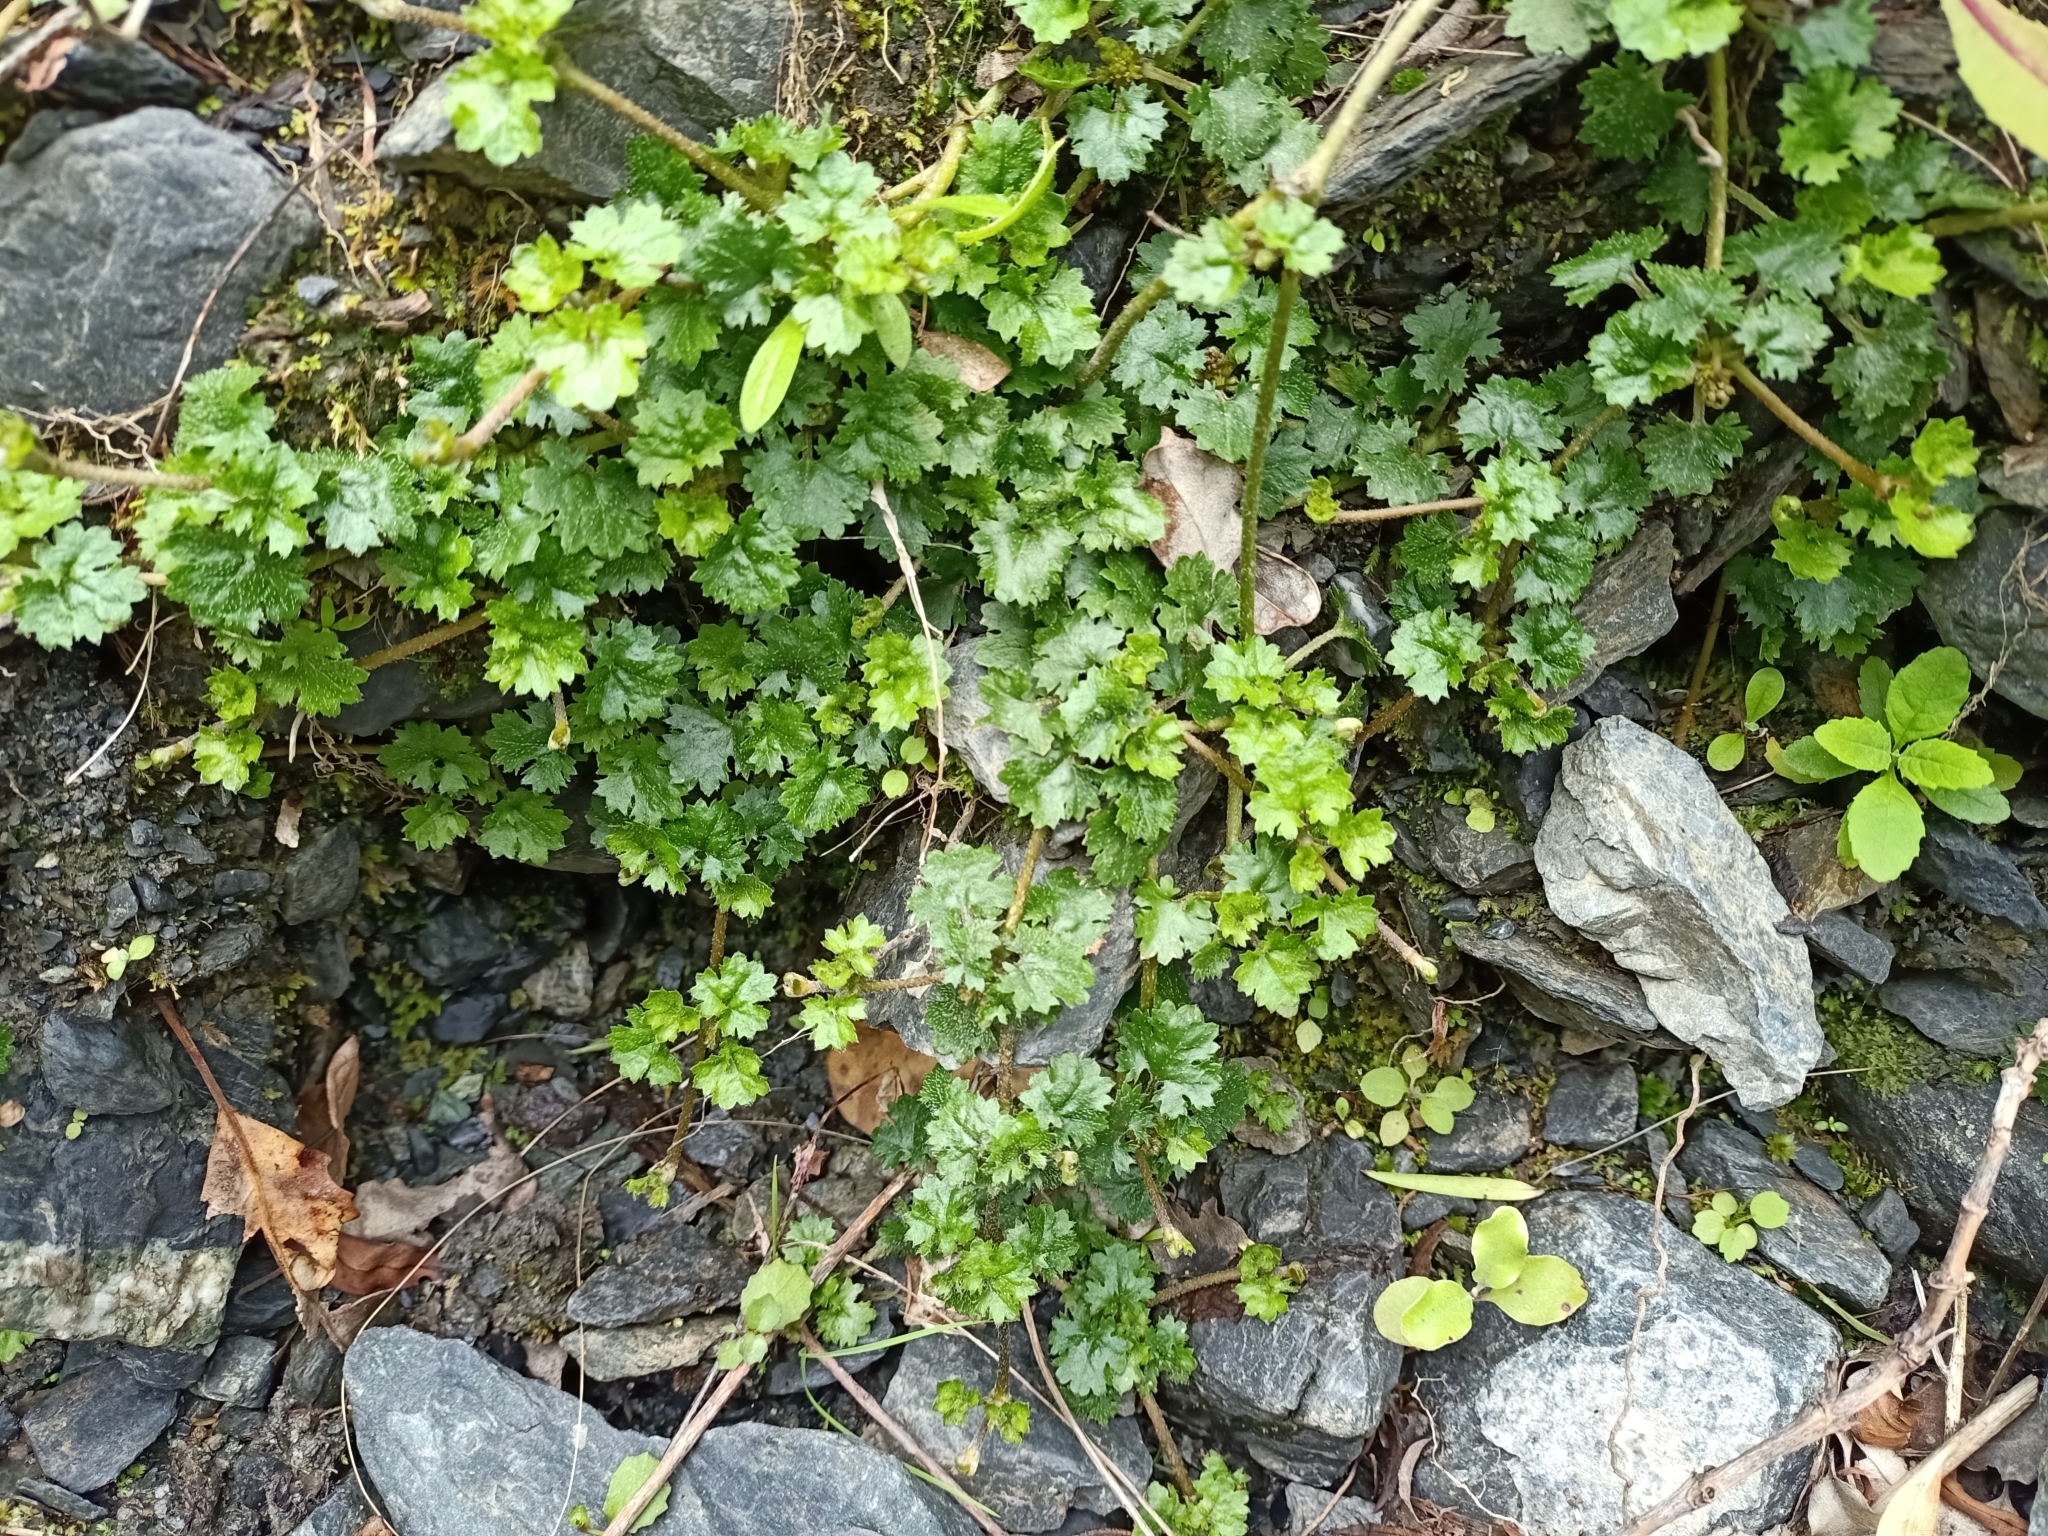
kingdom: Plantae
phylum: Tracheophyta
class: Magnoliopsida
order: Gunnerales
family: Gunneraceae
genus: Gunnera
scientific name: Gunnera monoica
